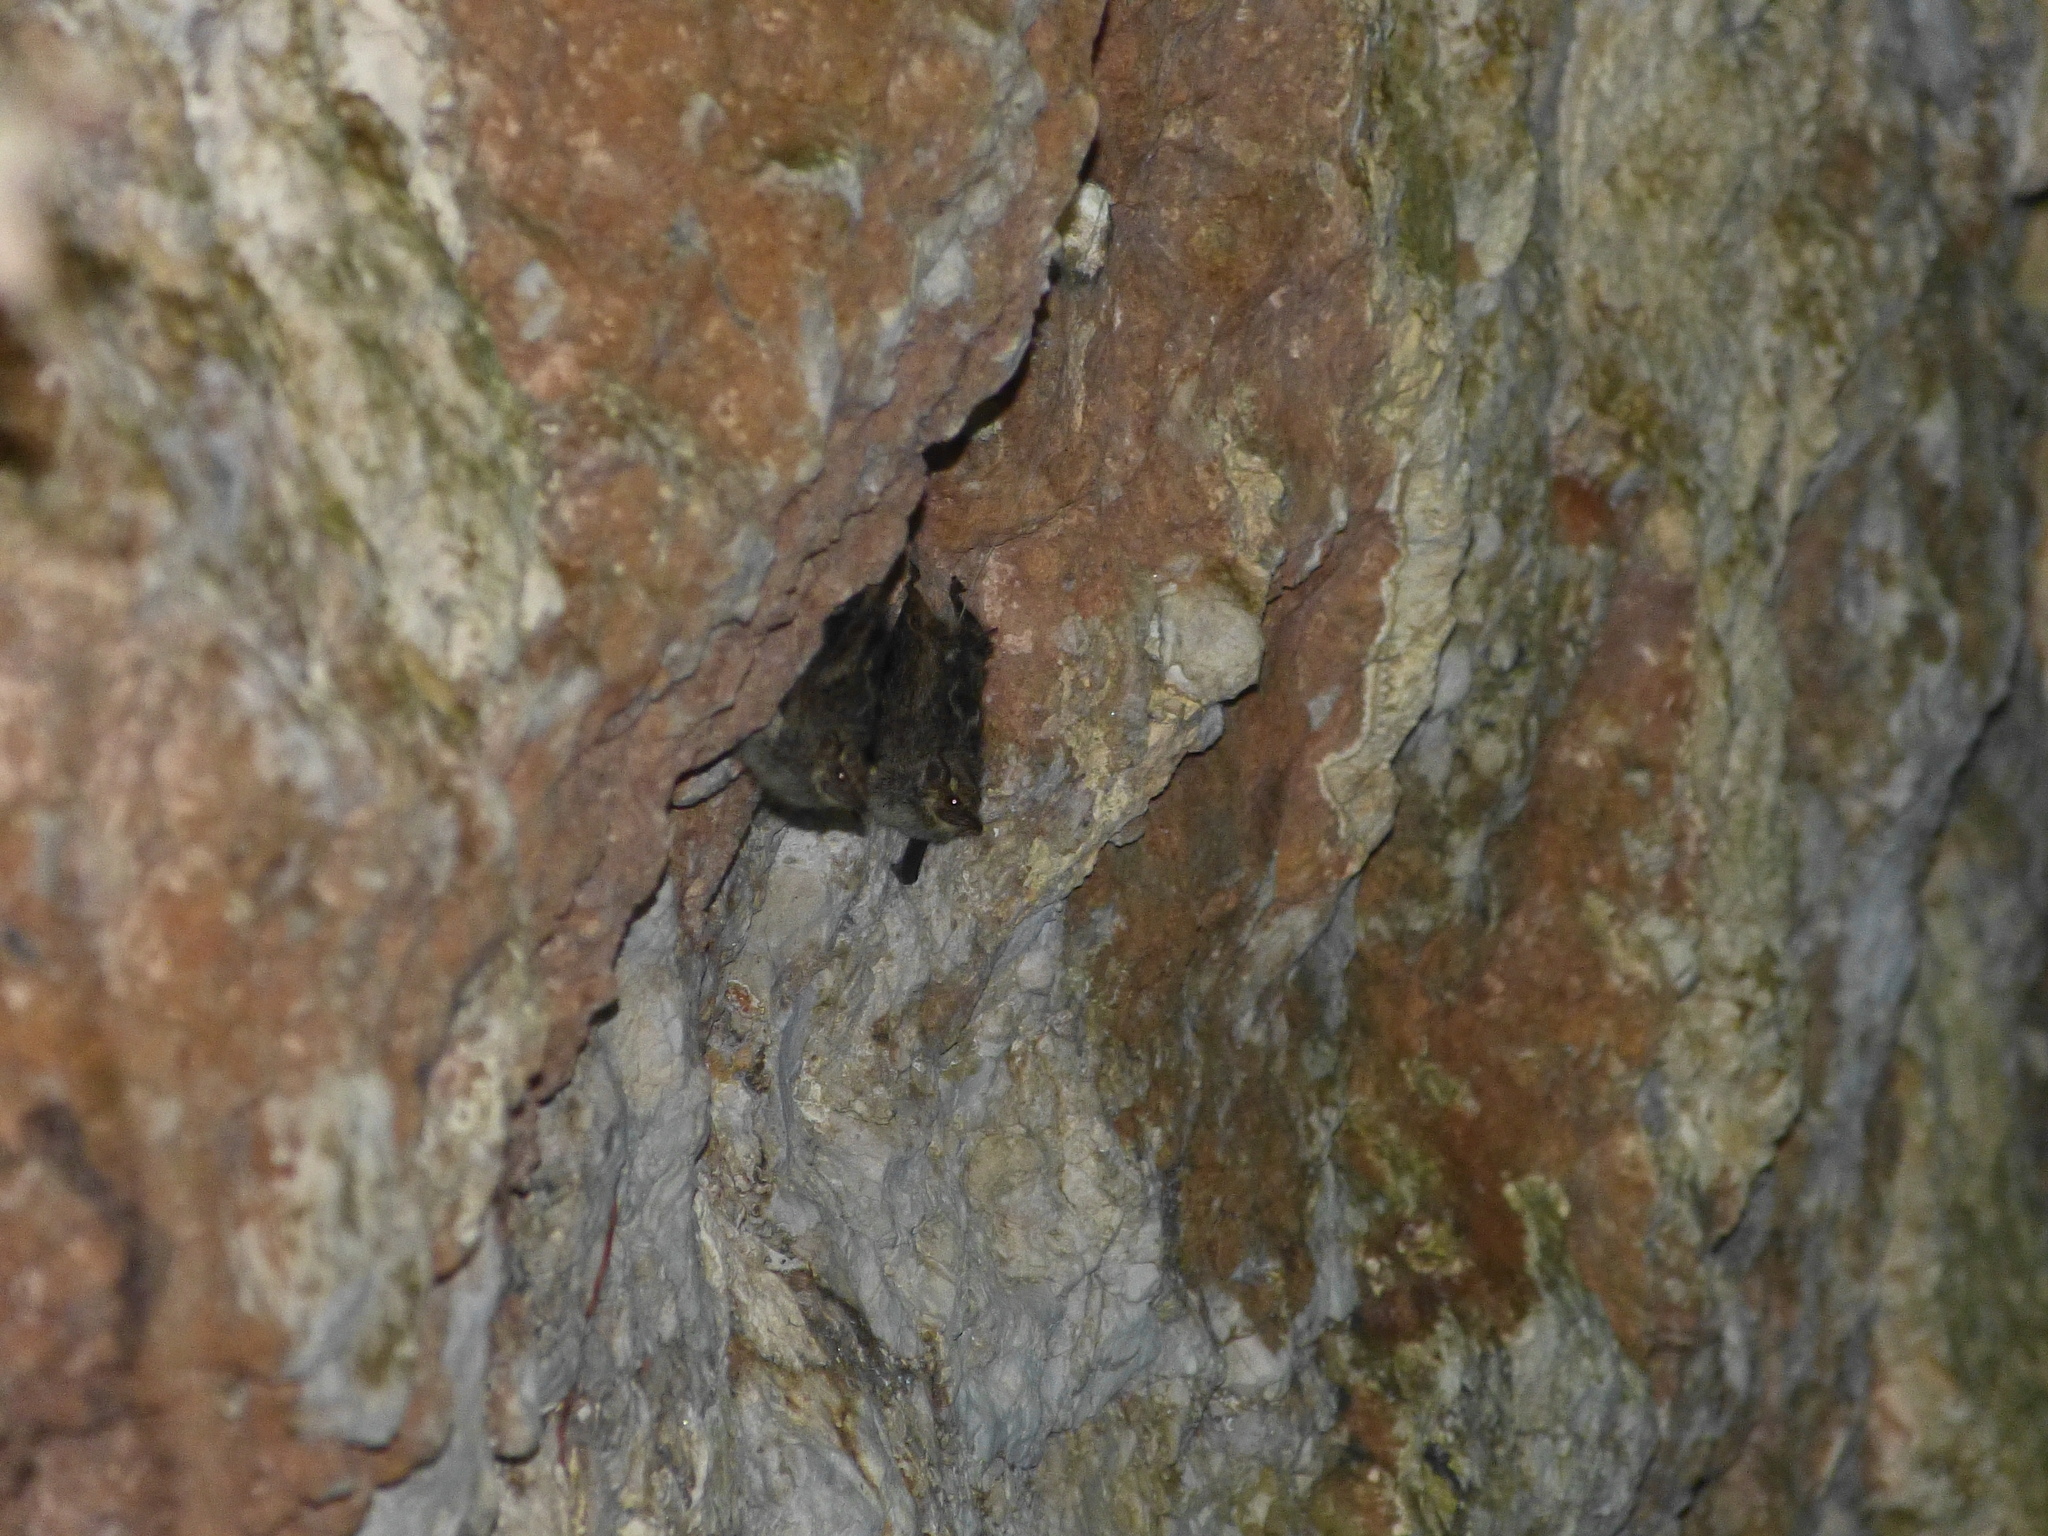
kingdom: Animalia
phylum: Chordata
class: Mammalia
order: Chiroptera
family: Emballonuridae
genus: Rhynchonycteris
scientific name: Rhynchonycteris naso
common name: Proboscis bat
